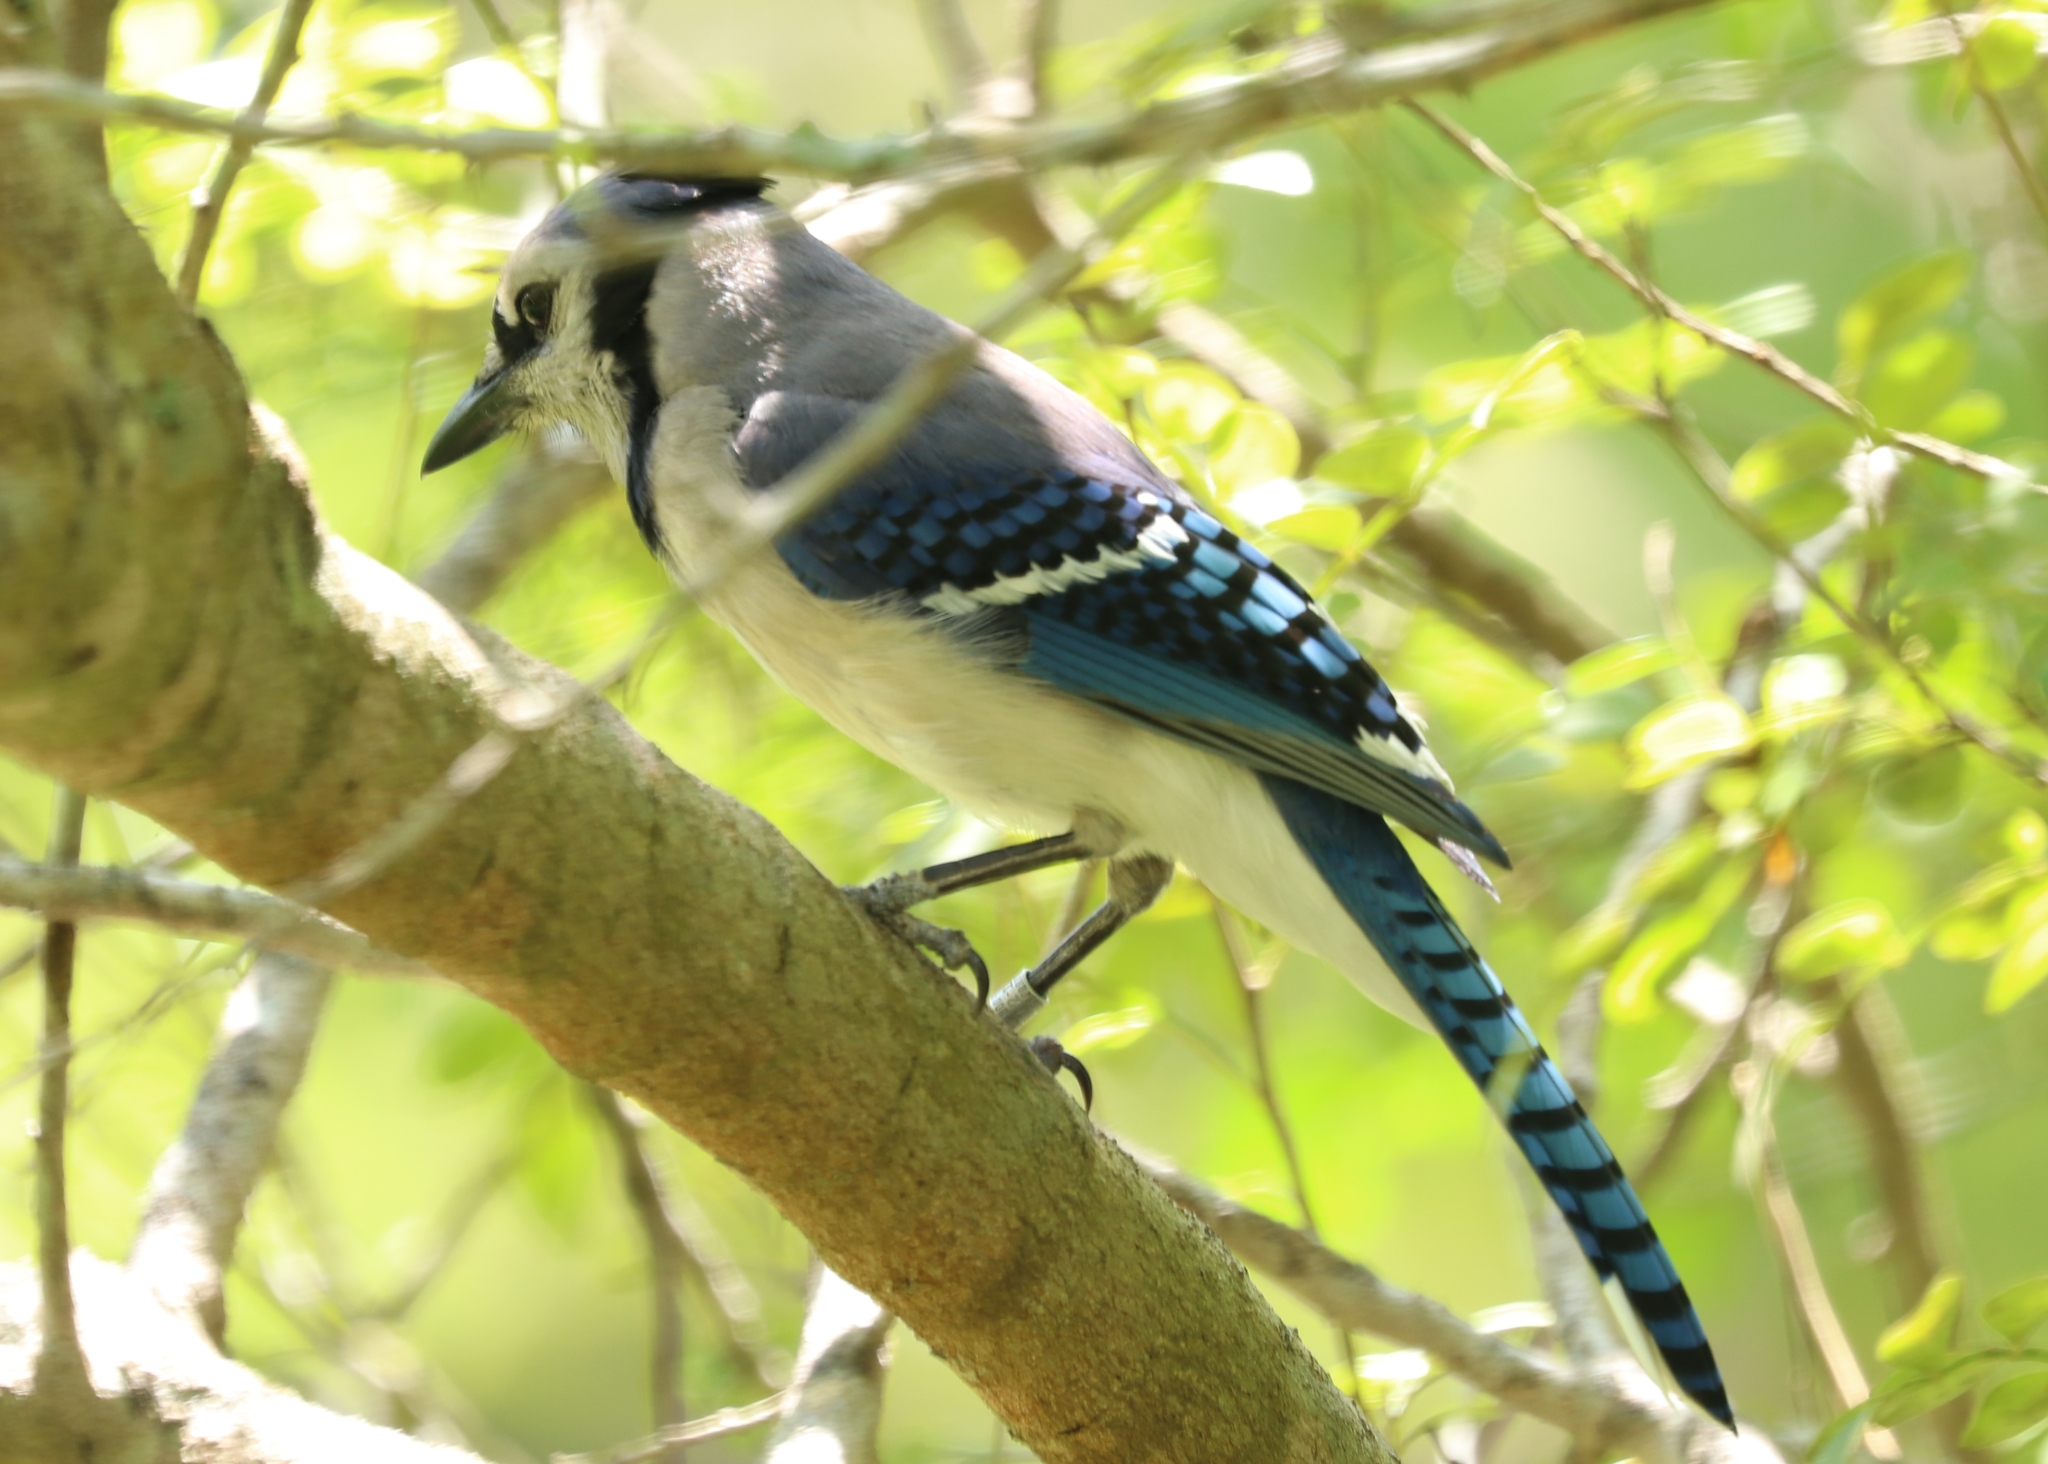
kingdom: Animalia
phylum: Chordata
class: Aves
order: Passeriformes
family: Corvidae
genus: Cyanocitta
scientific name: Cyanocitta cristata
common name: Blue jay
